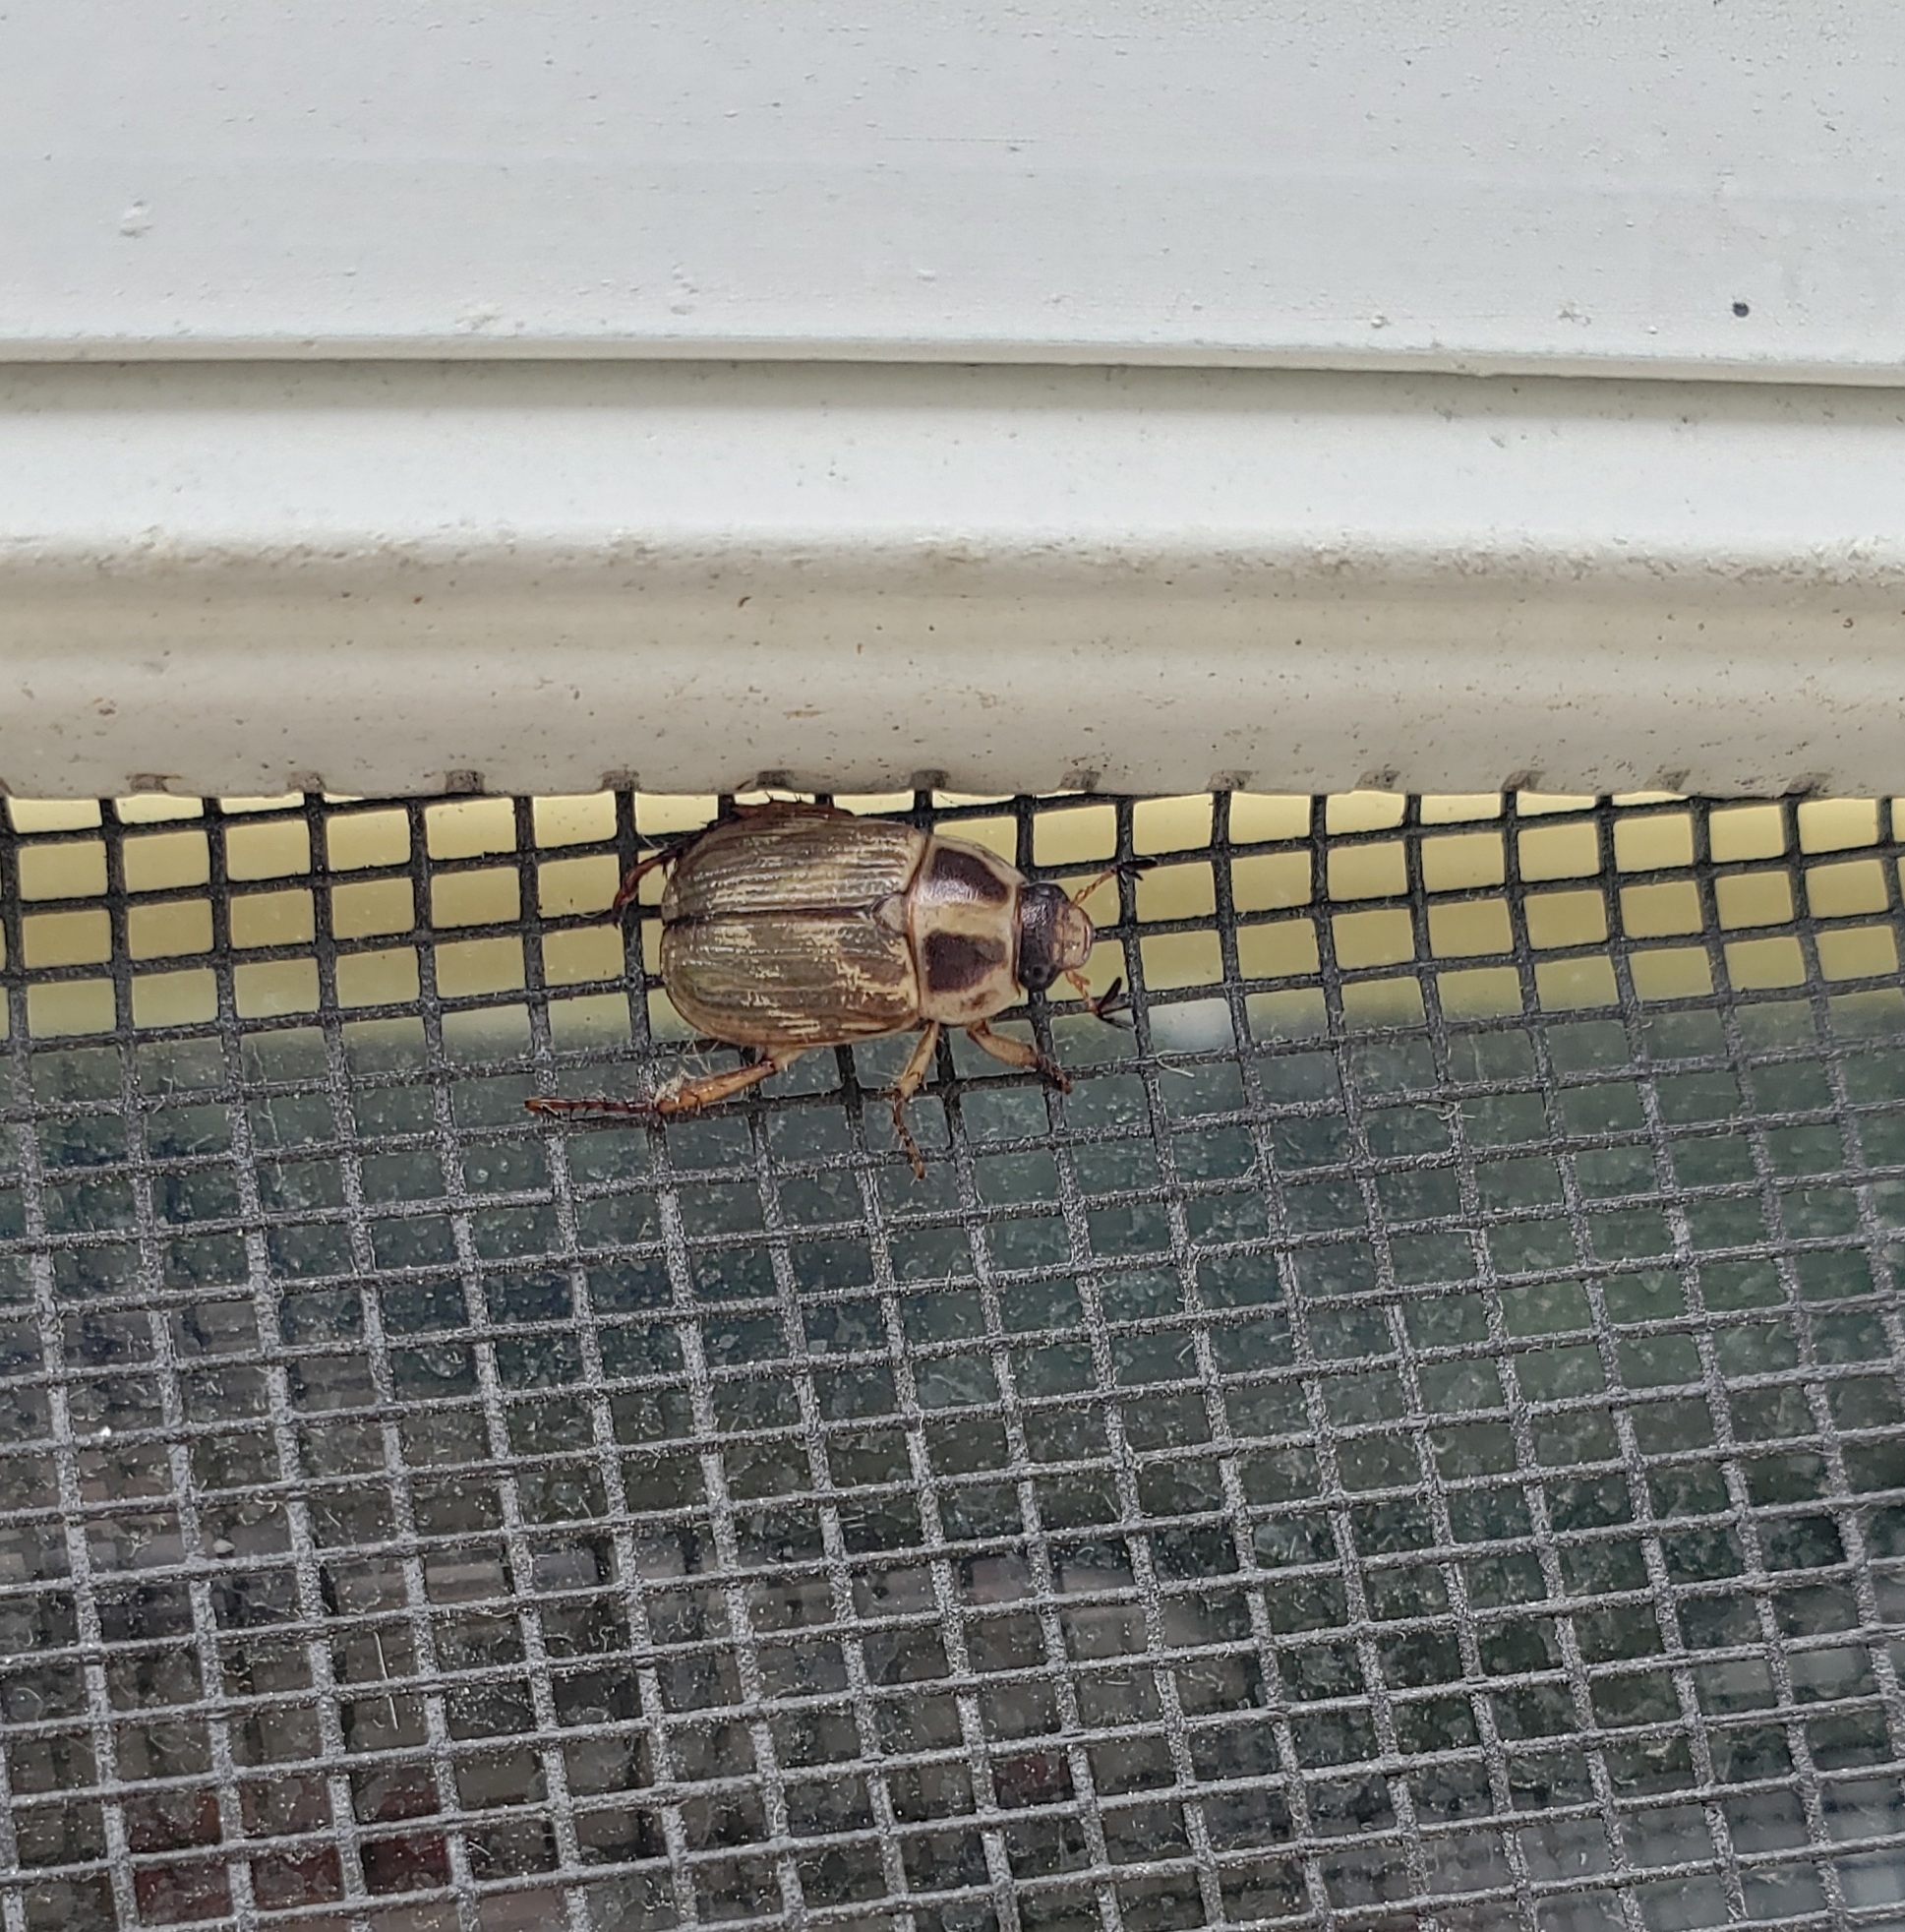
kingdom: Animalia
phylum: Arthropoda
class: Insecta
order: Coleoptera
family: Scarabaeidae
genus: Exomala
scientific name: Exomala orientalis
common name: Oriental beetle
